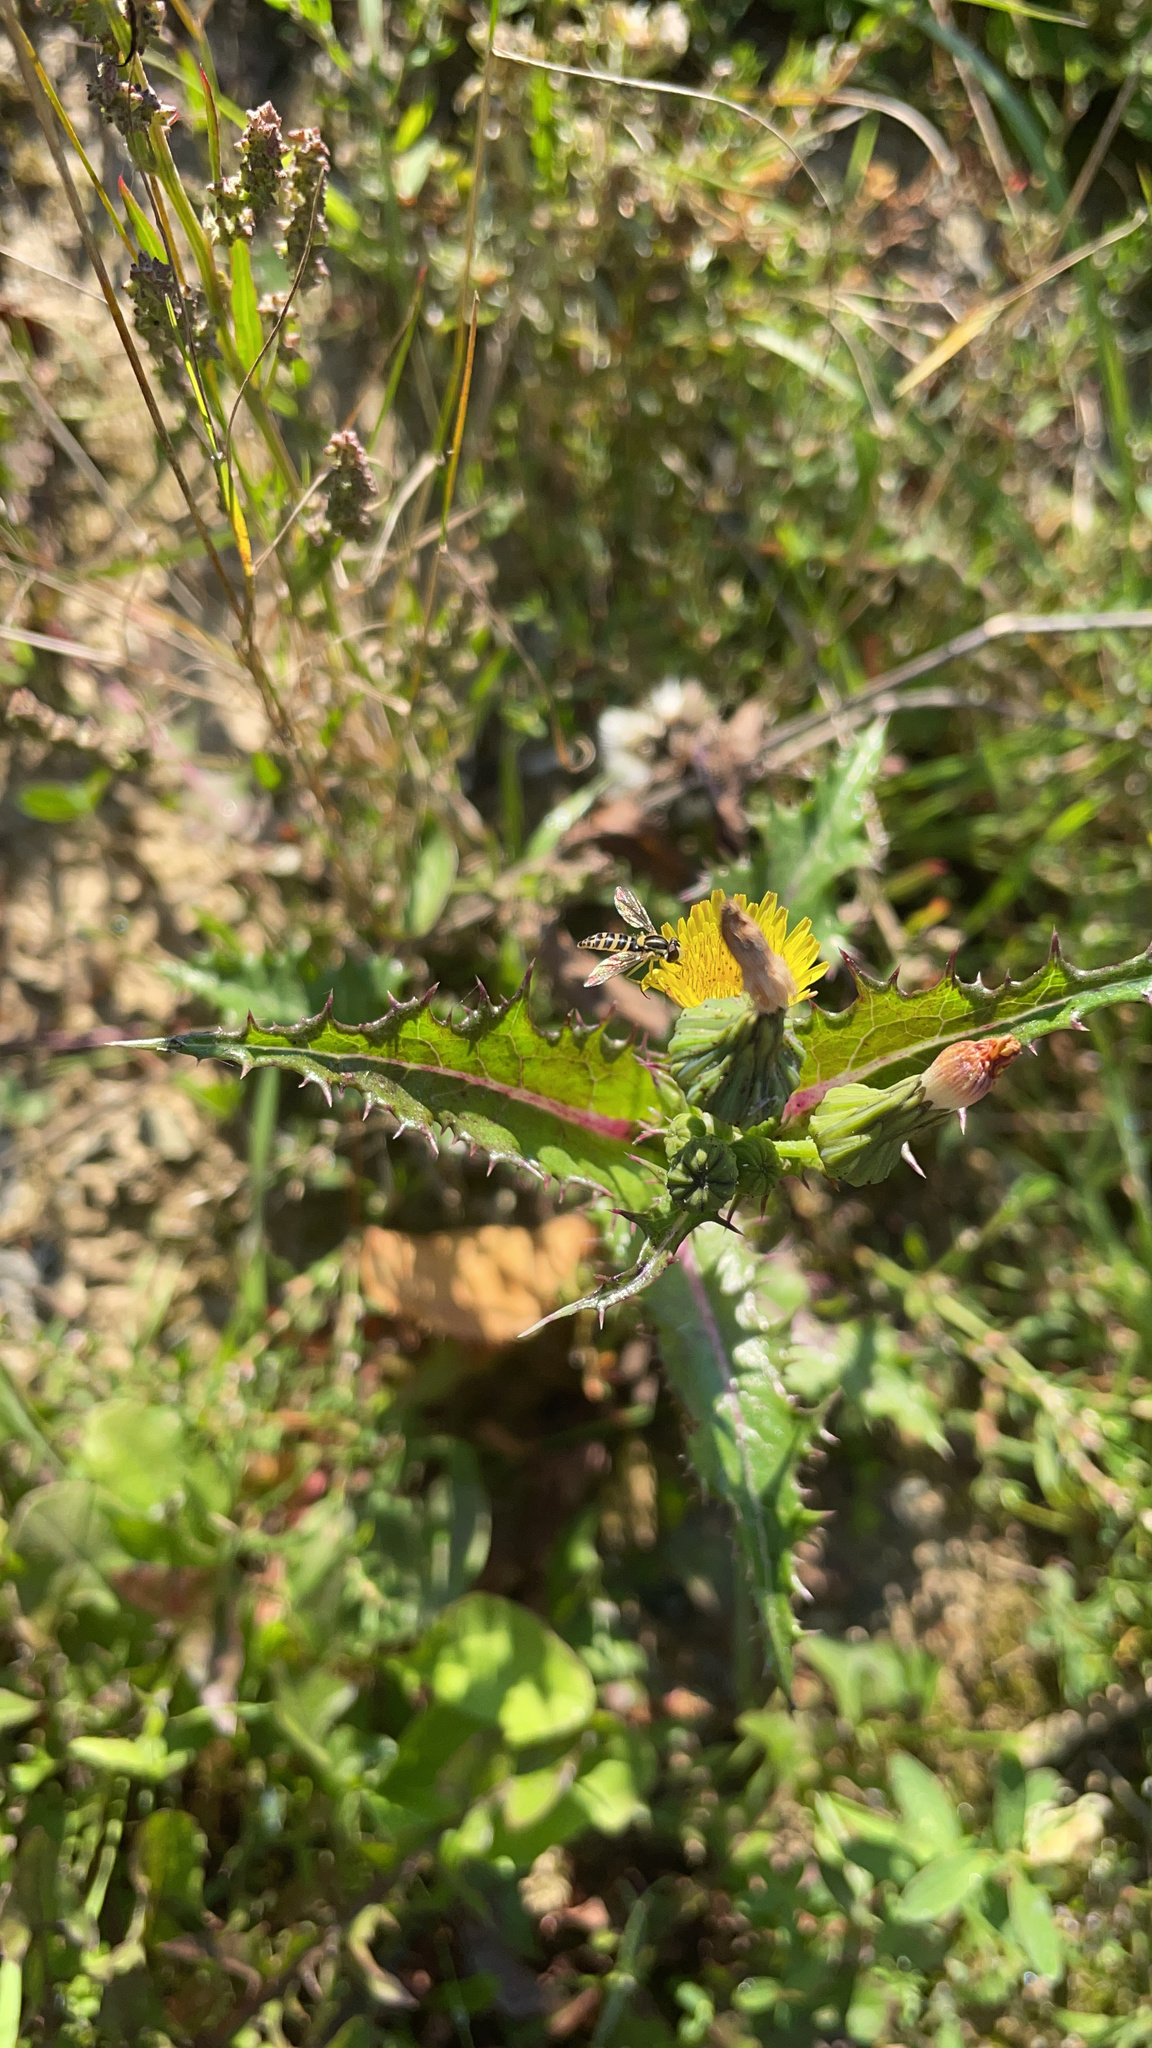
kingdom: Animalia
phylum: Arthropoda
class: Insecta
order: Diptera
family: Syrphidae
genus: Sphaerophoria
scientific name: Sphaerophoria
